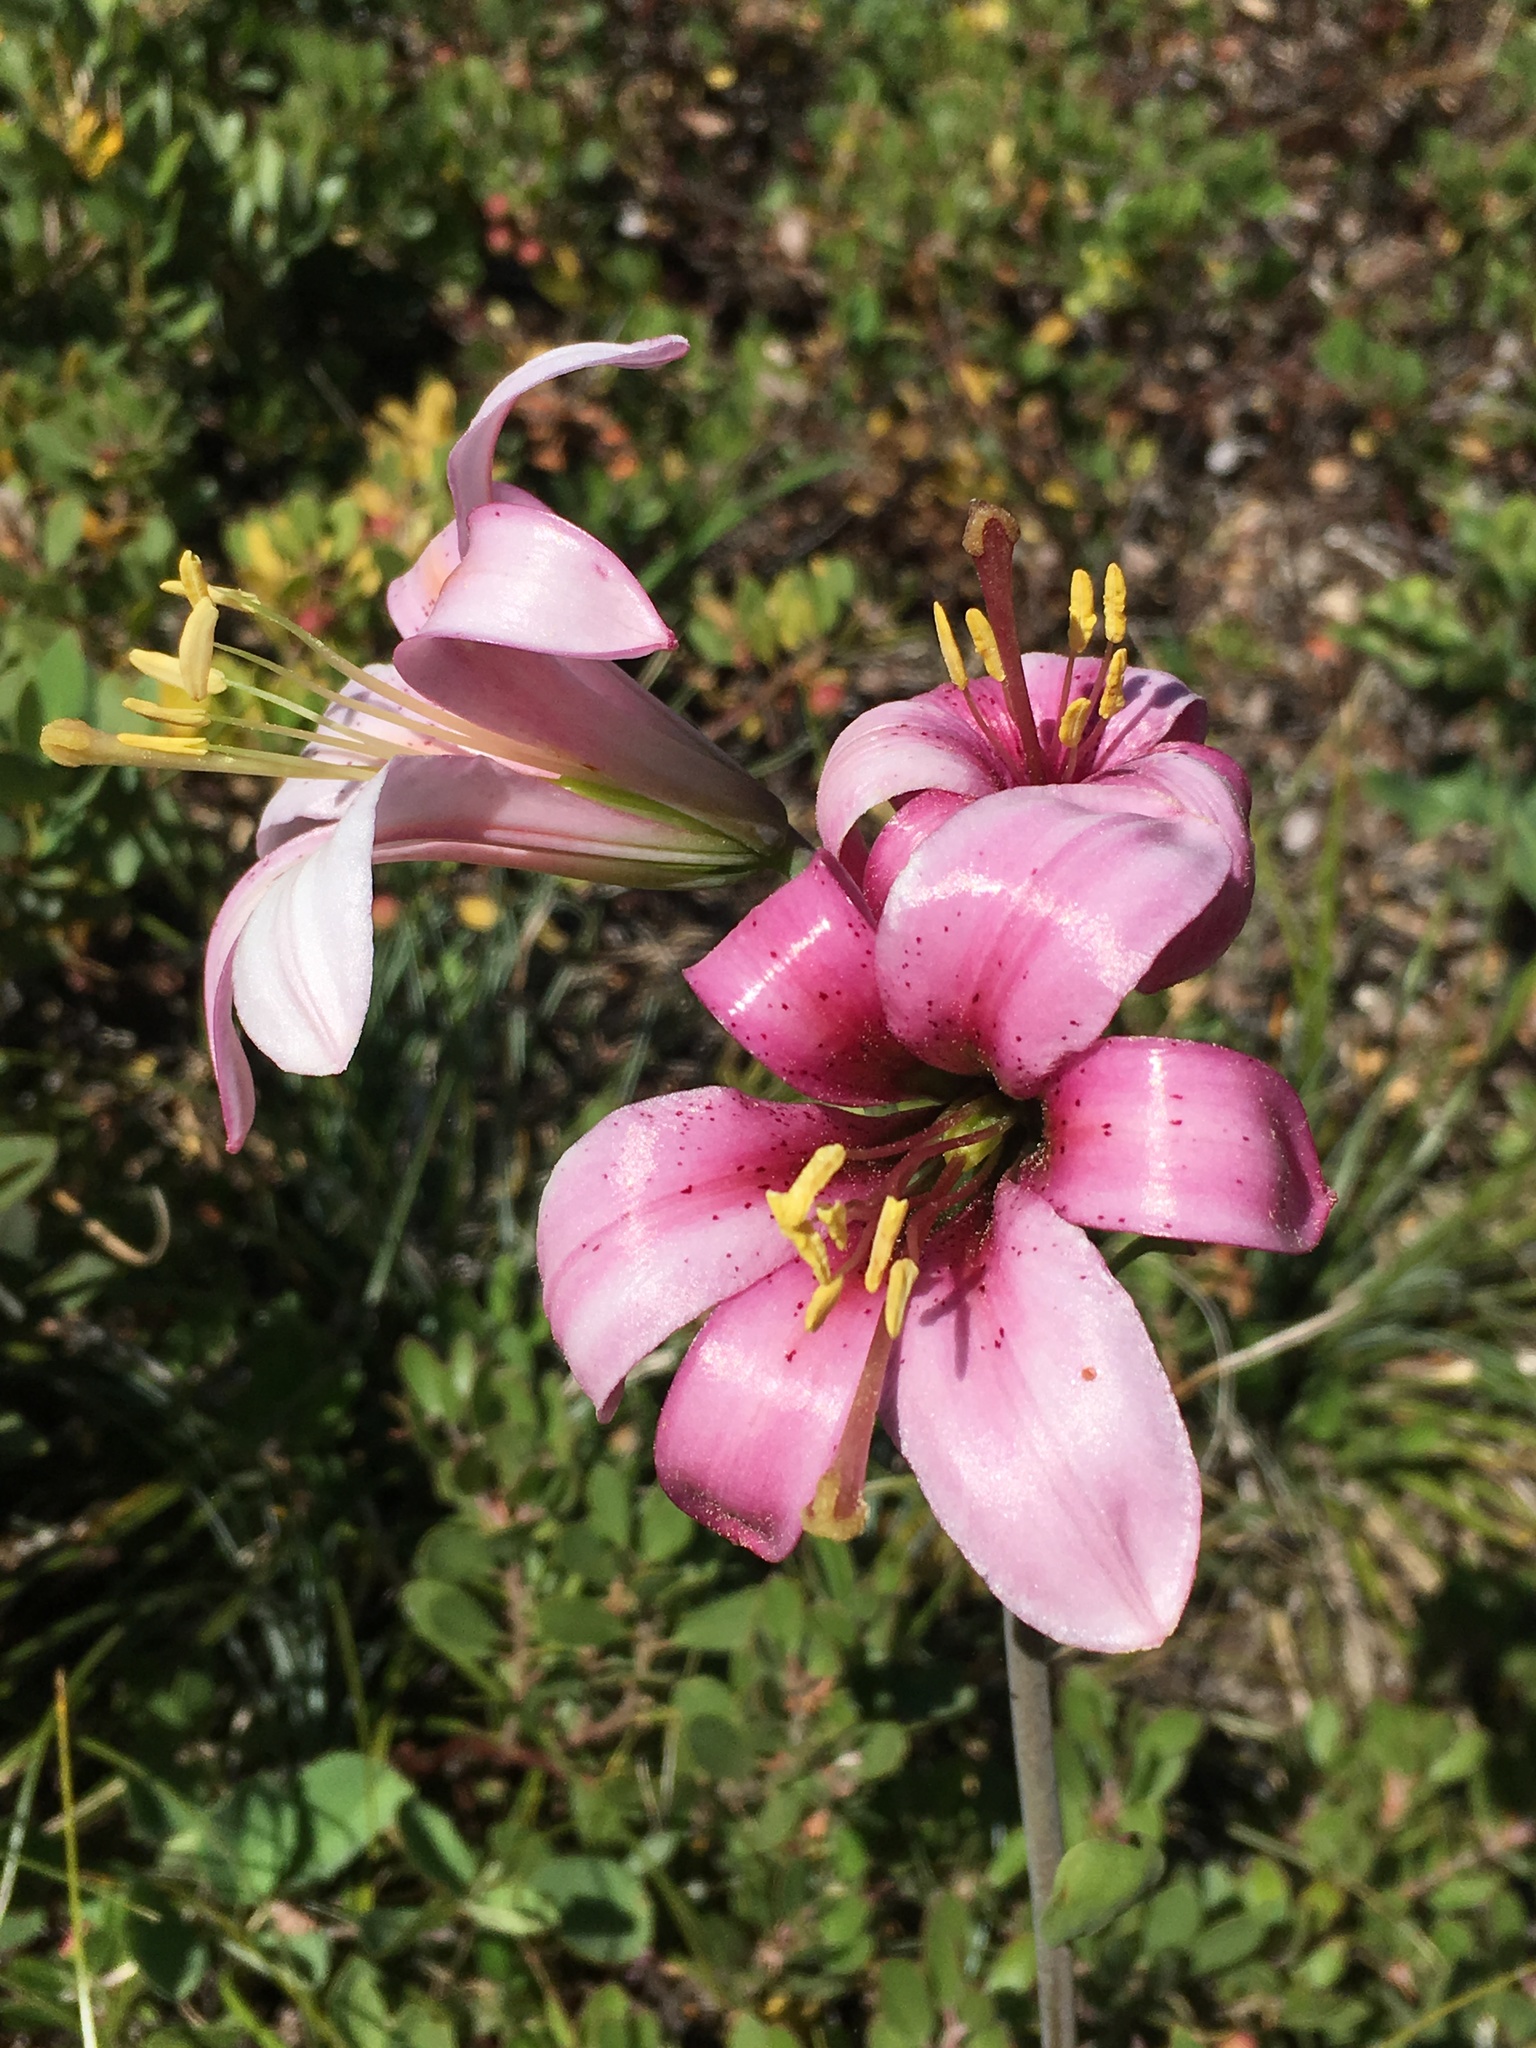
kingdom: Plantae
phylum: Tracheophyta
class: Liliopsida
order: Liliales
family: Liliaceae
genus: Lilium
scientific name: Lilium washingtonianum
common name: Washington lily
